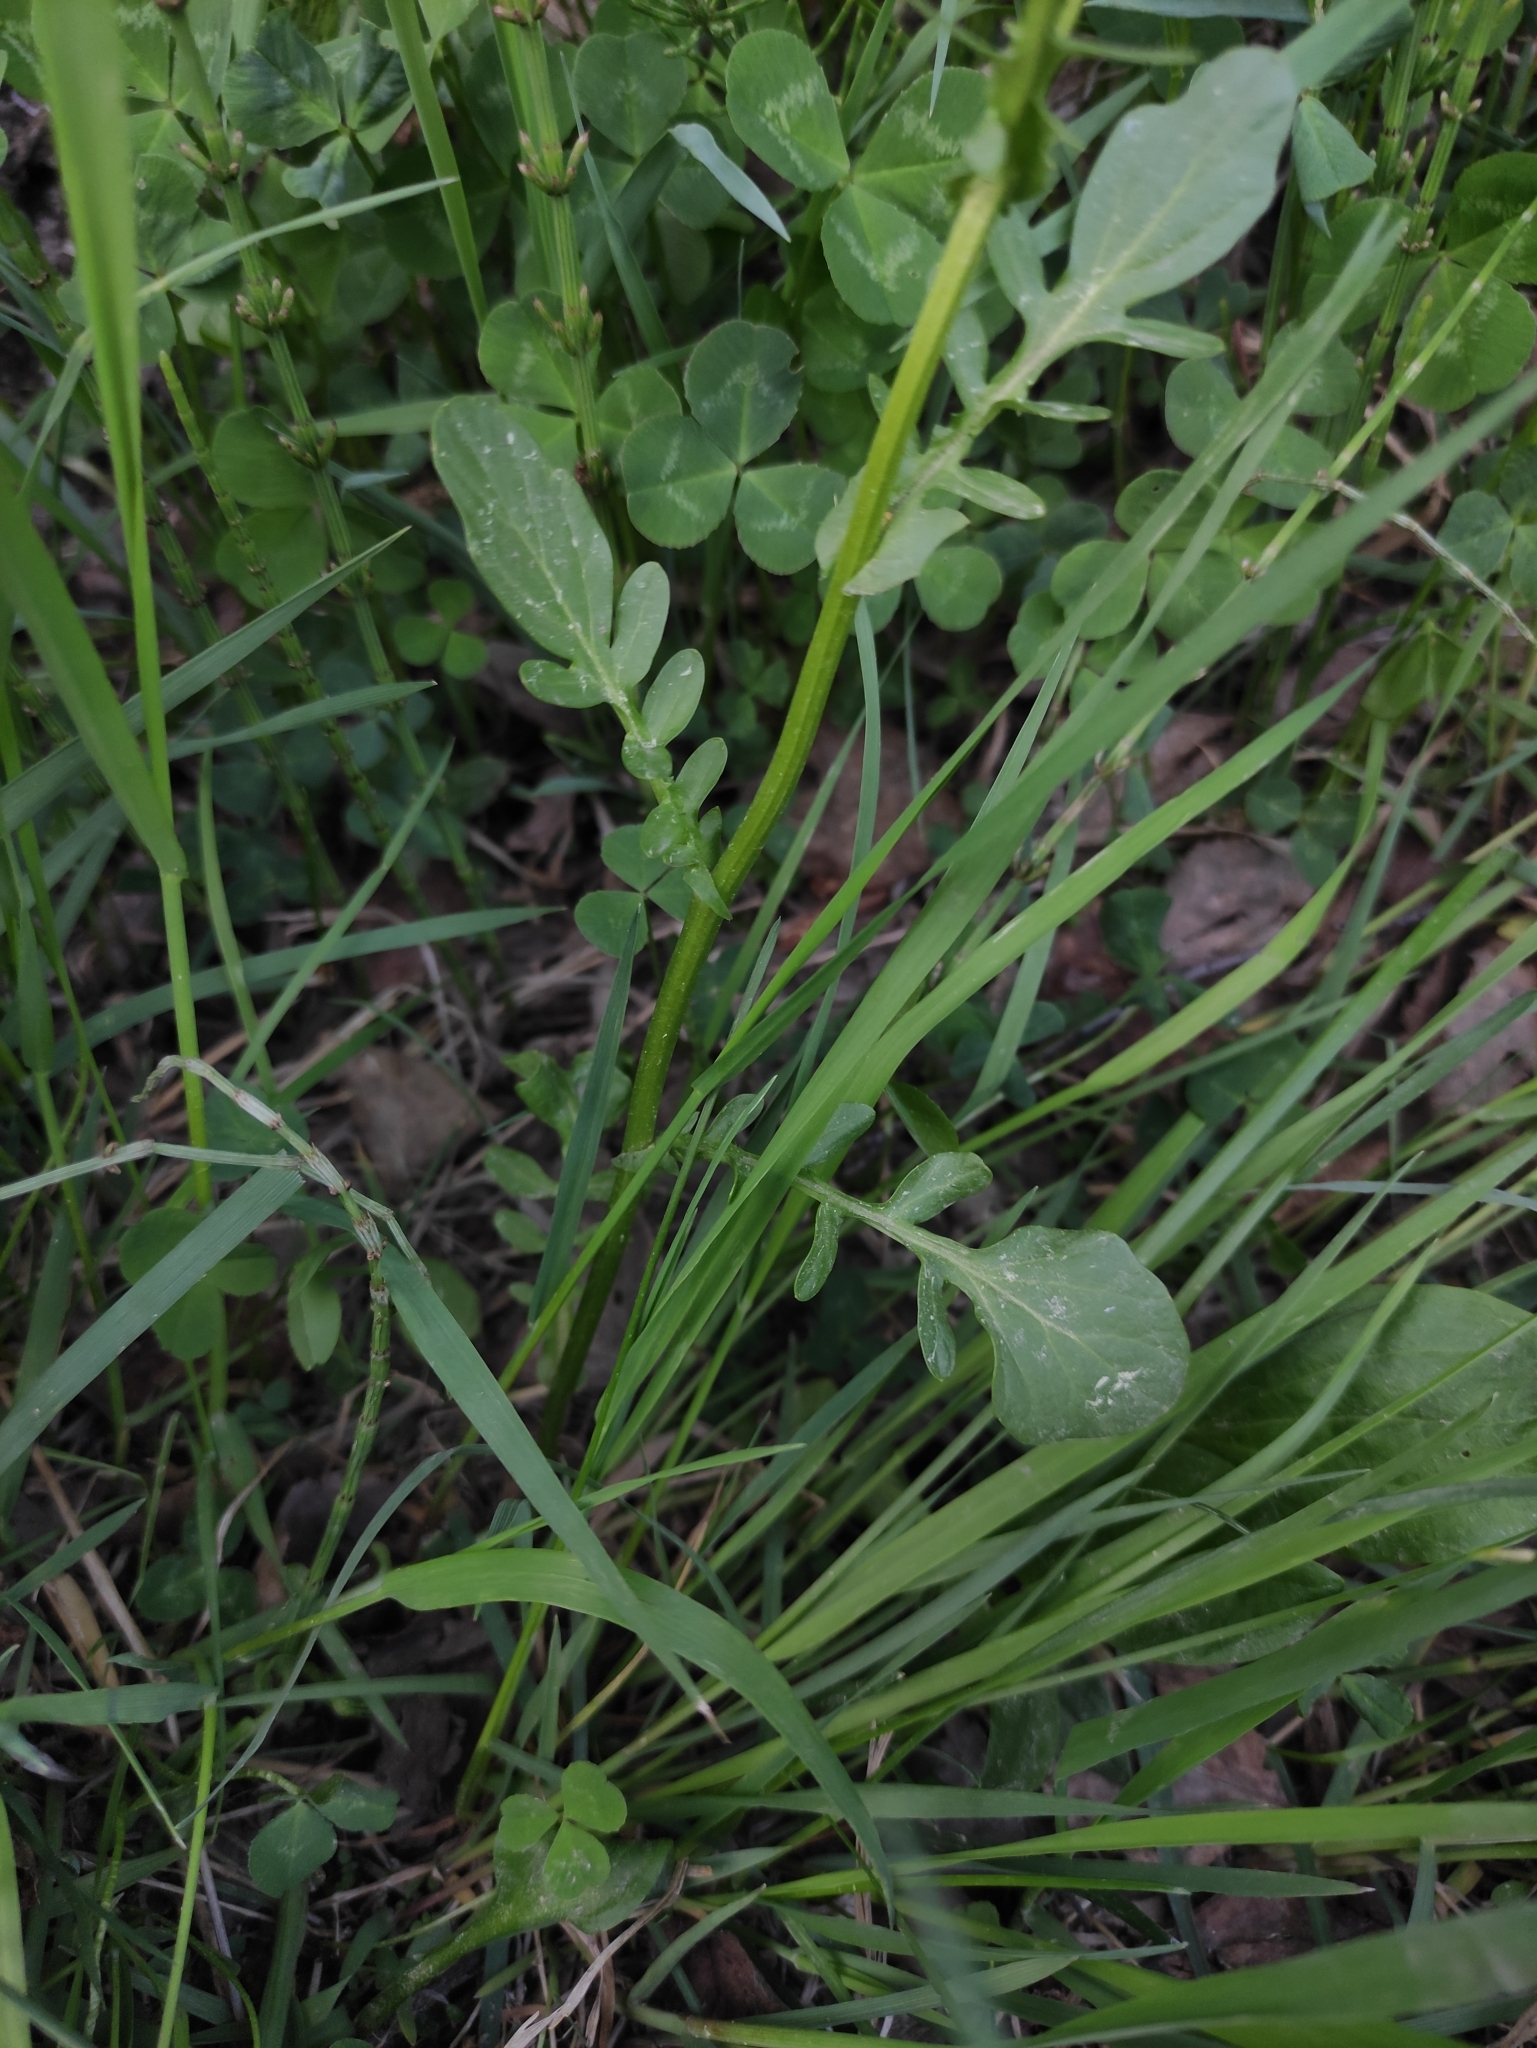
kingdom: Plantae
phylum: Tracheophyta
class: Magnoliopsida
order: Brassicales
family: Brassicaceae
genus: Barbarea
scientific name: Barbarea vulgaris
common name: Cressy-greens
